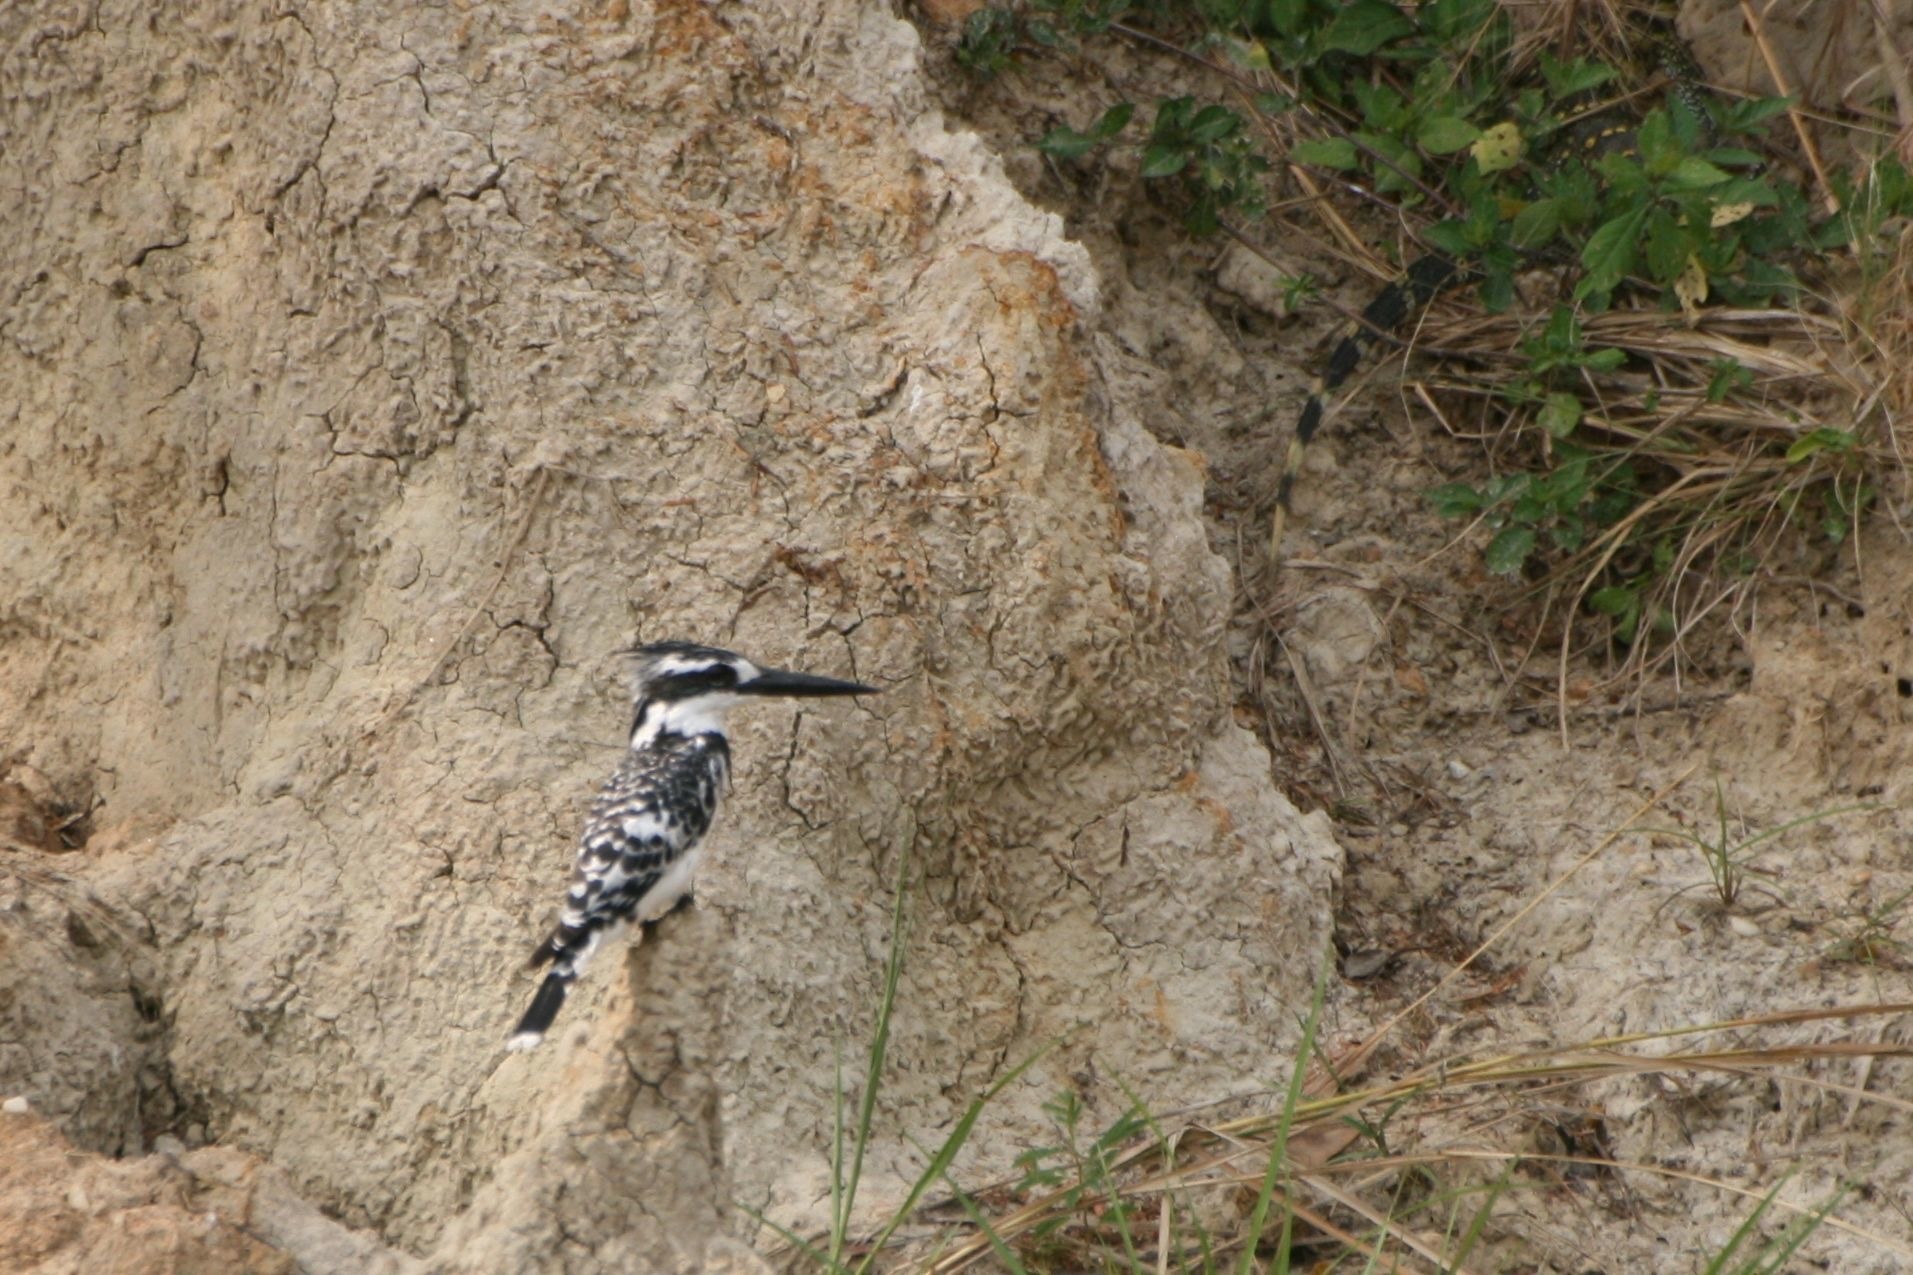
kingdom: Animalia
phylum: Chordata
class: Aves
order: Coraciiformes
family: Alcedinidae
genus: Ceryle
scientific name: Ceryle rudis
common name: Pied kingfisher
